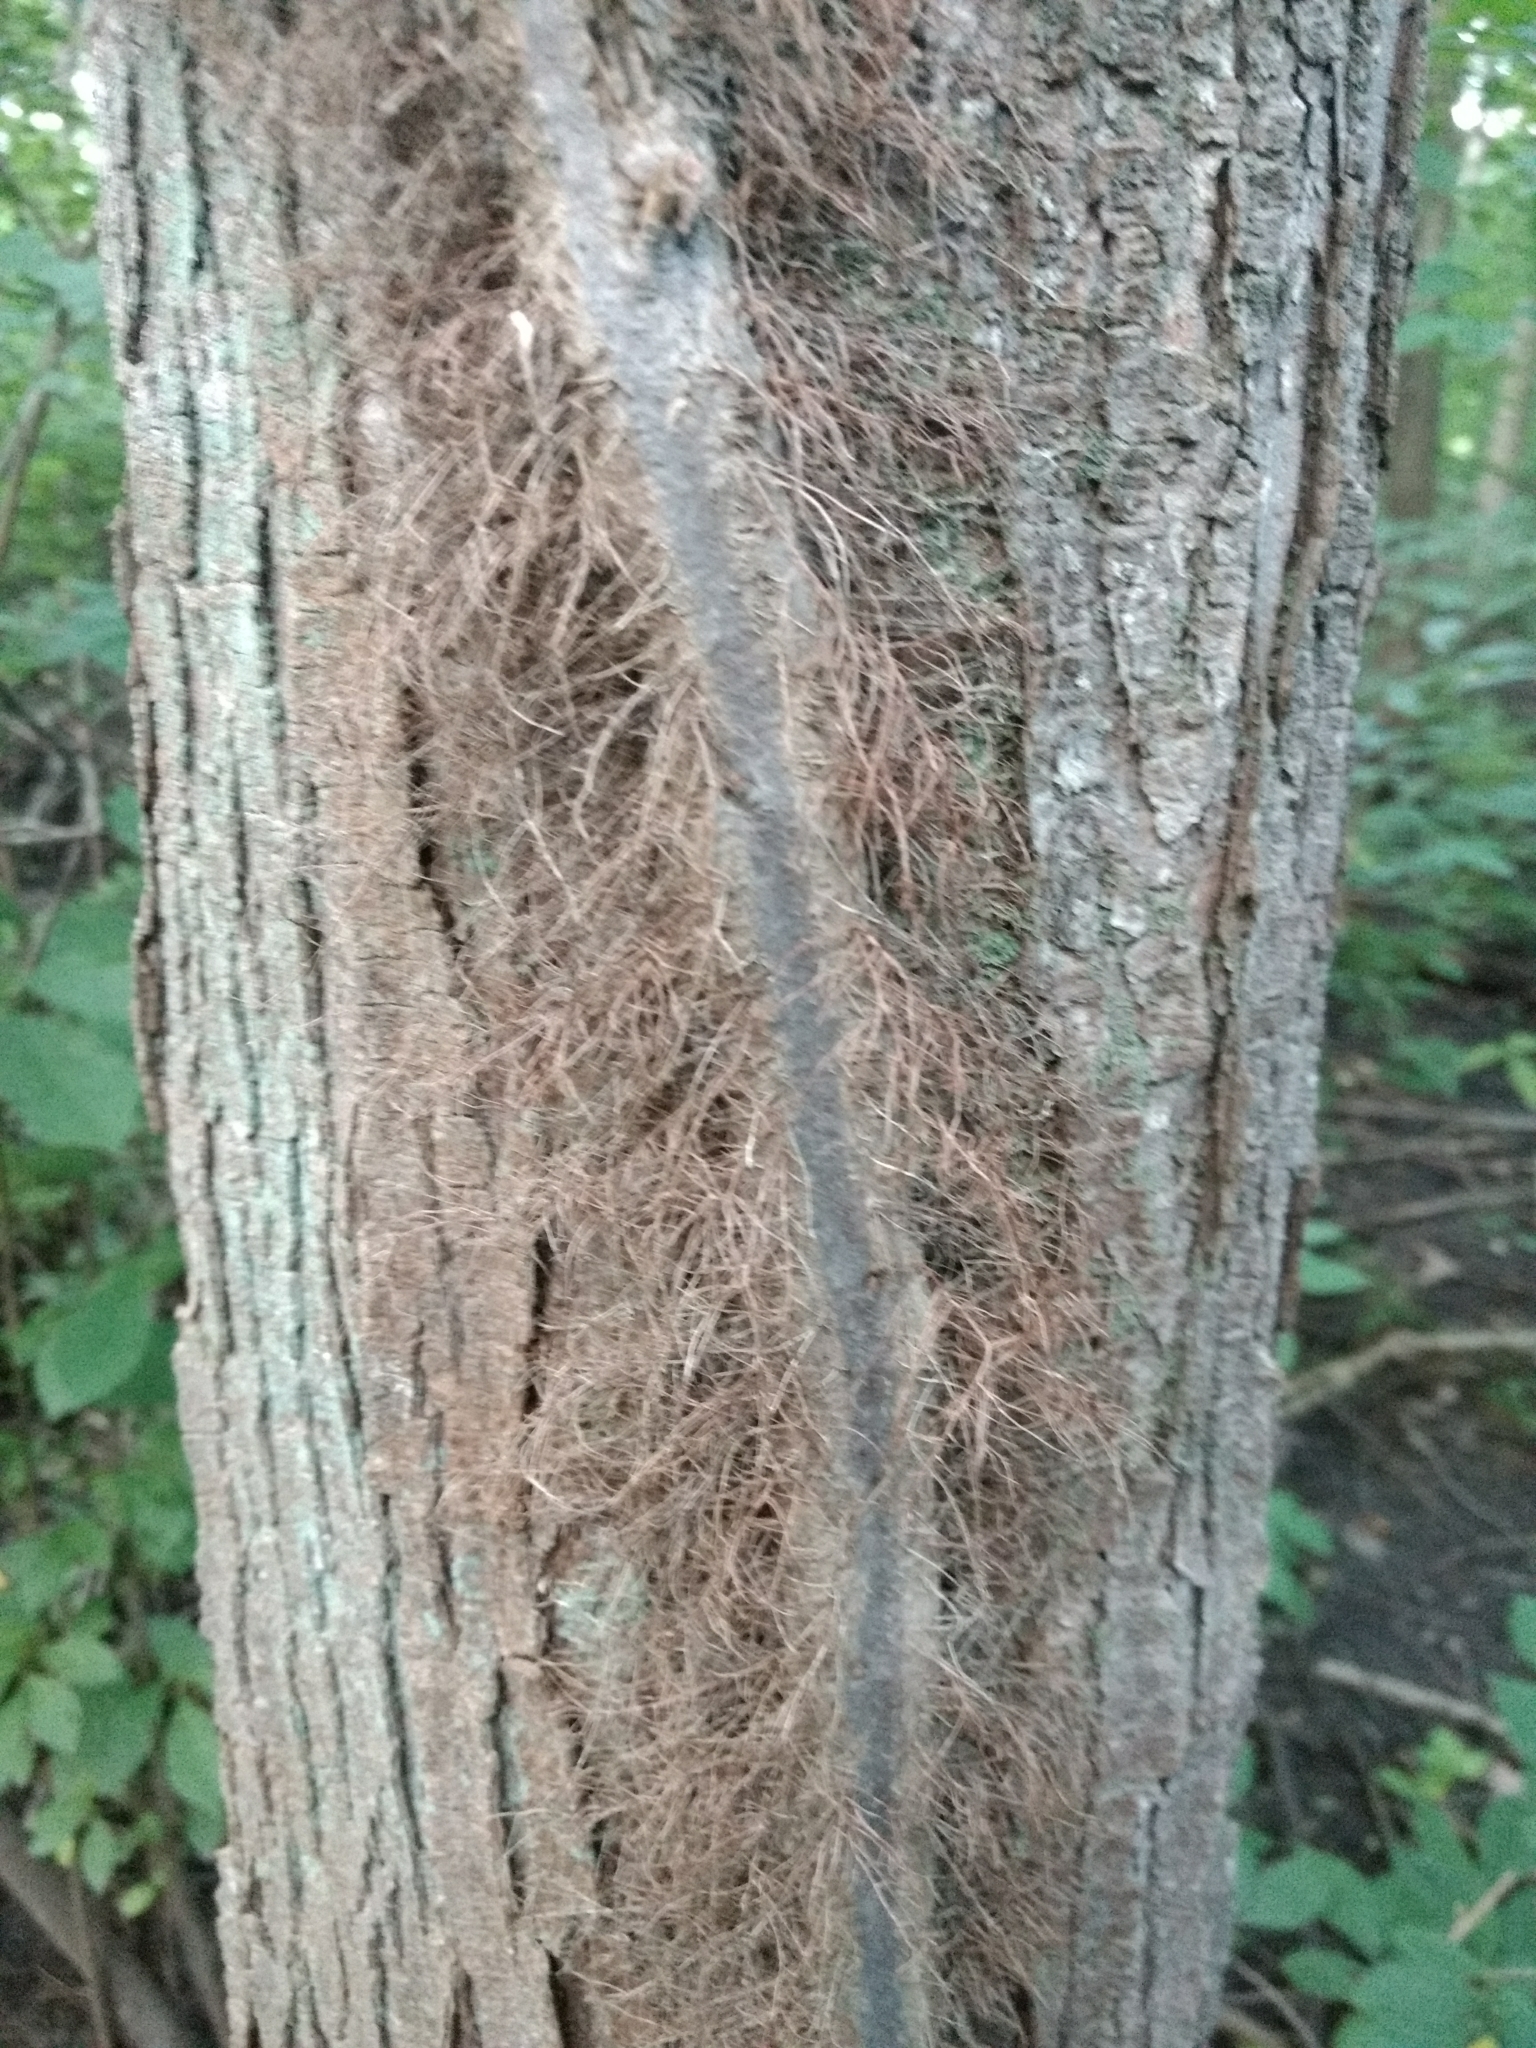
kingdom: Plantae
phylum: Tracheophyta
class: Magnoliopsida
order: Sapindales
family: Anacardiaceae
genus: Toxicodendron
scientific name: Toxicodendron radicans
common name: Poison ivy
